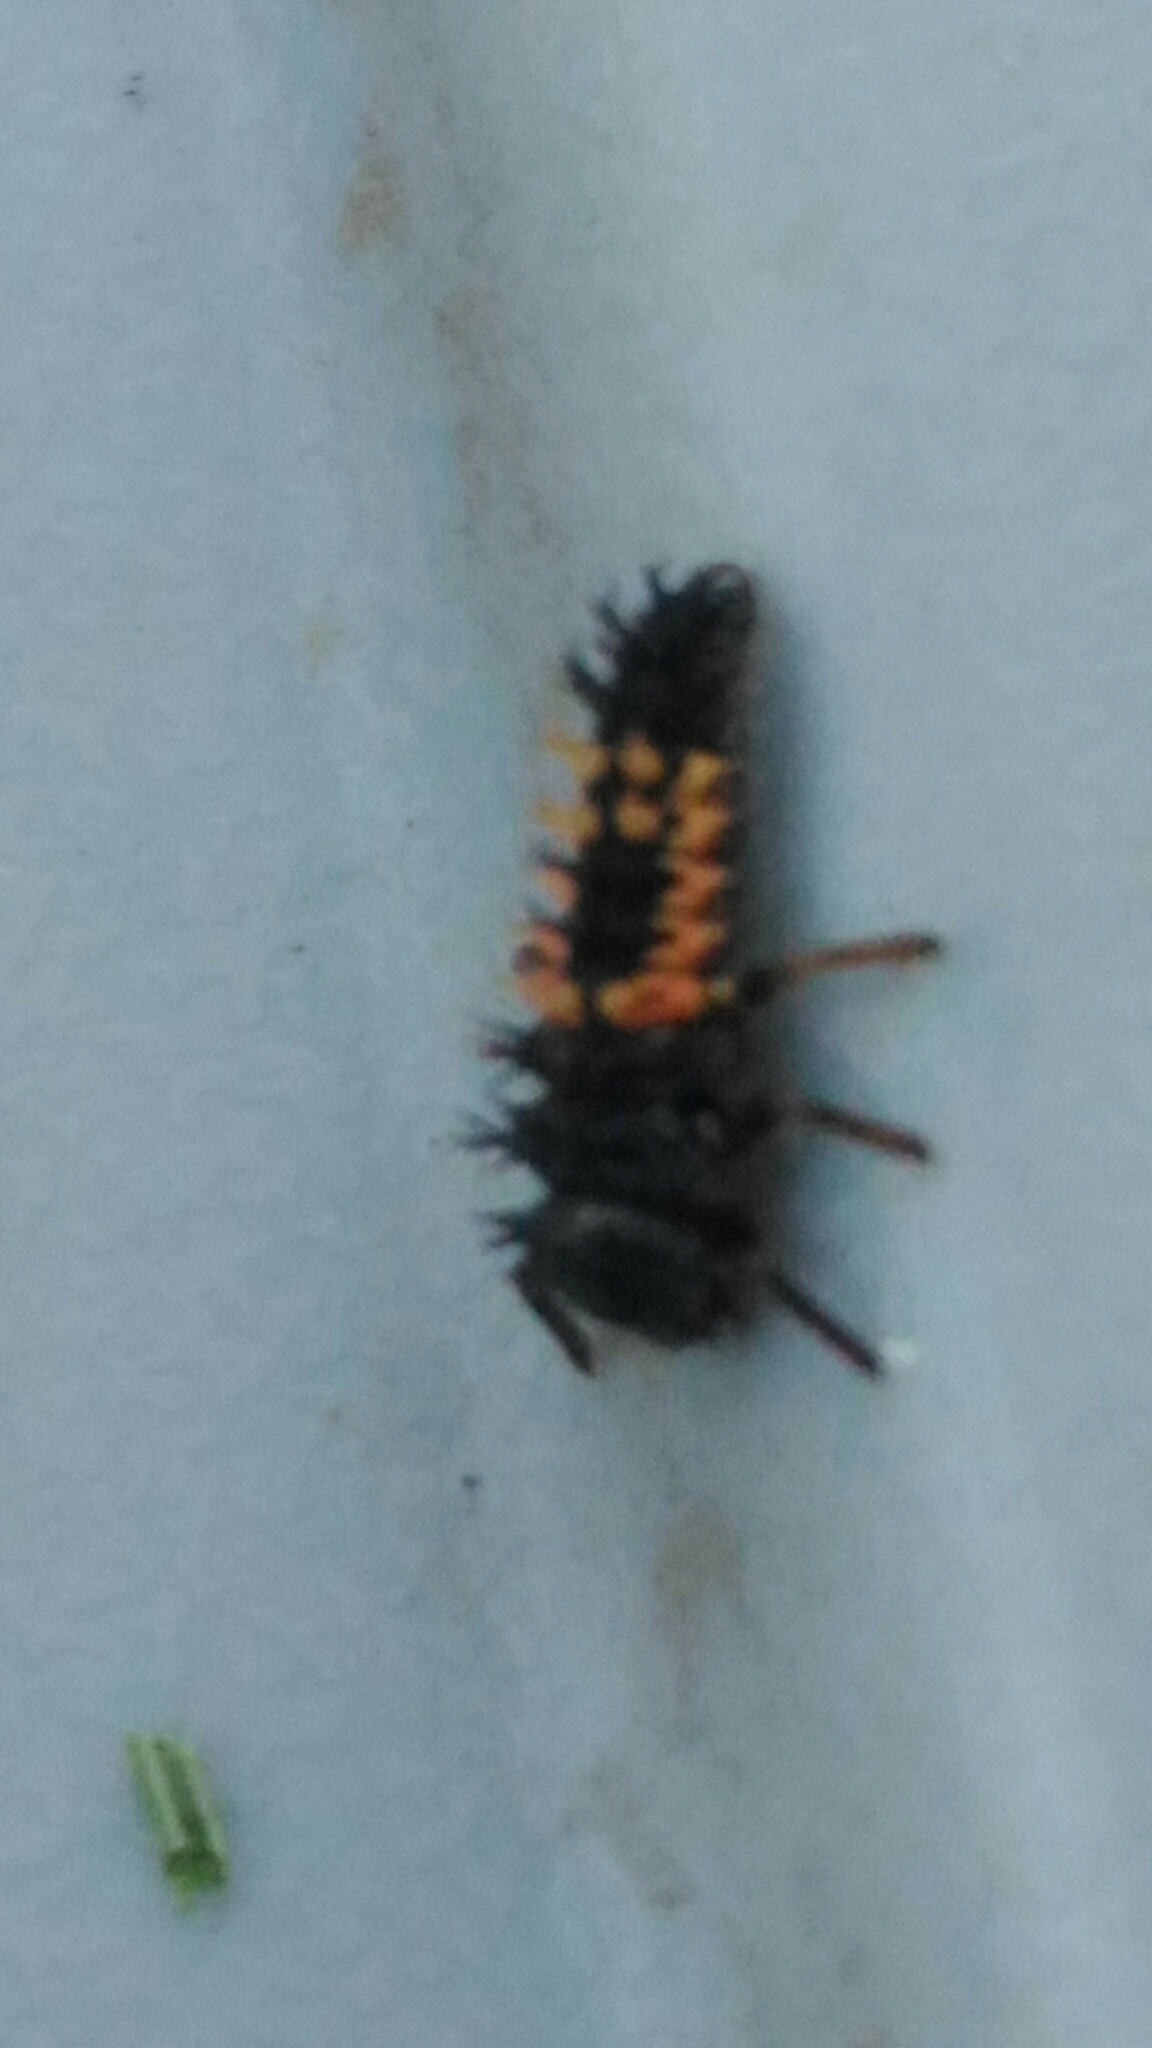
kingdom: Animalia
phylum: Arthropoda
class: Insecta
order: Coleoptera
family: Coccinellidae
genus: Harmonia
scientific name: Harmonia axyridis
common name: Harlequin ladybird
